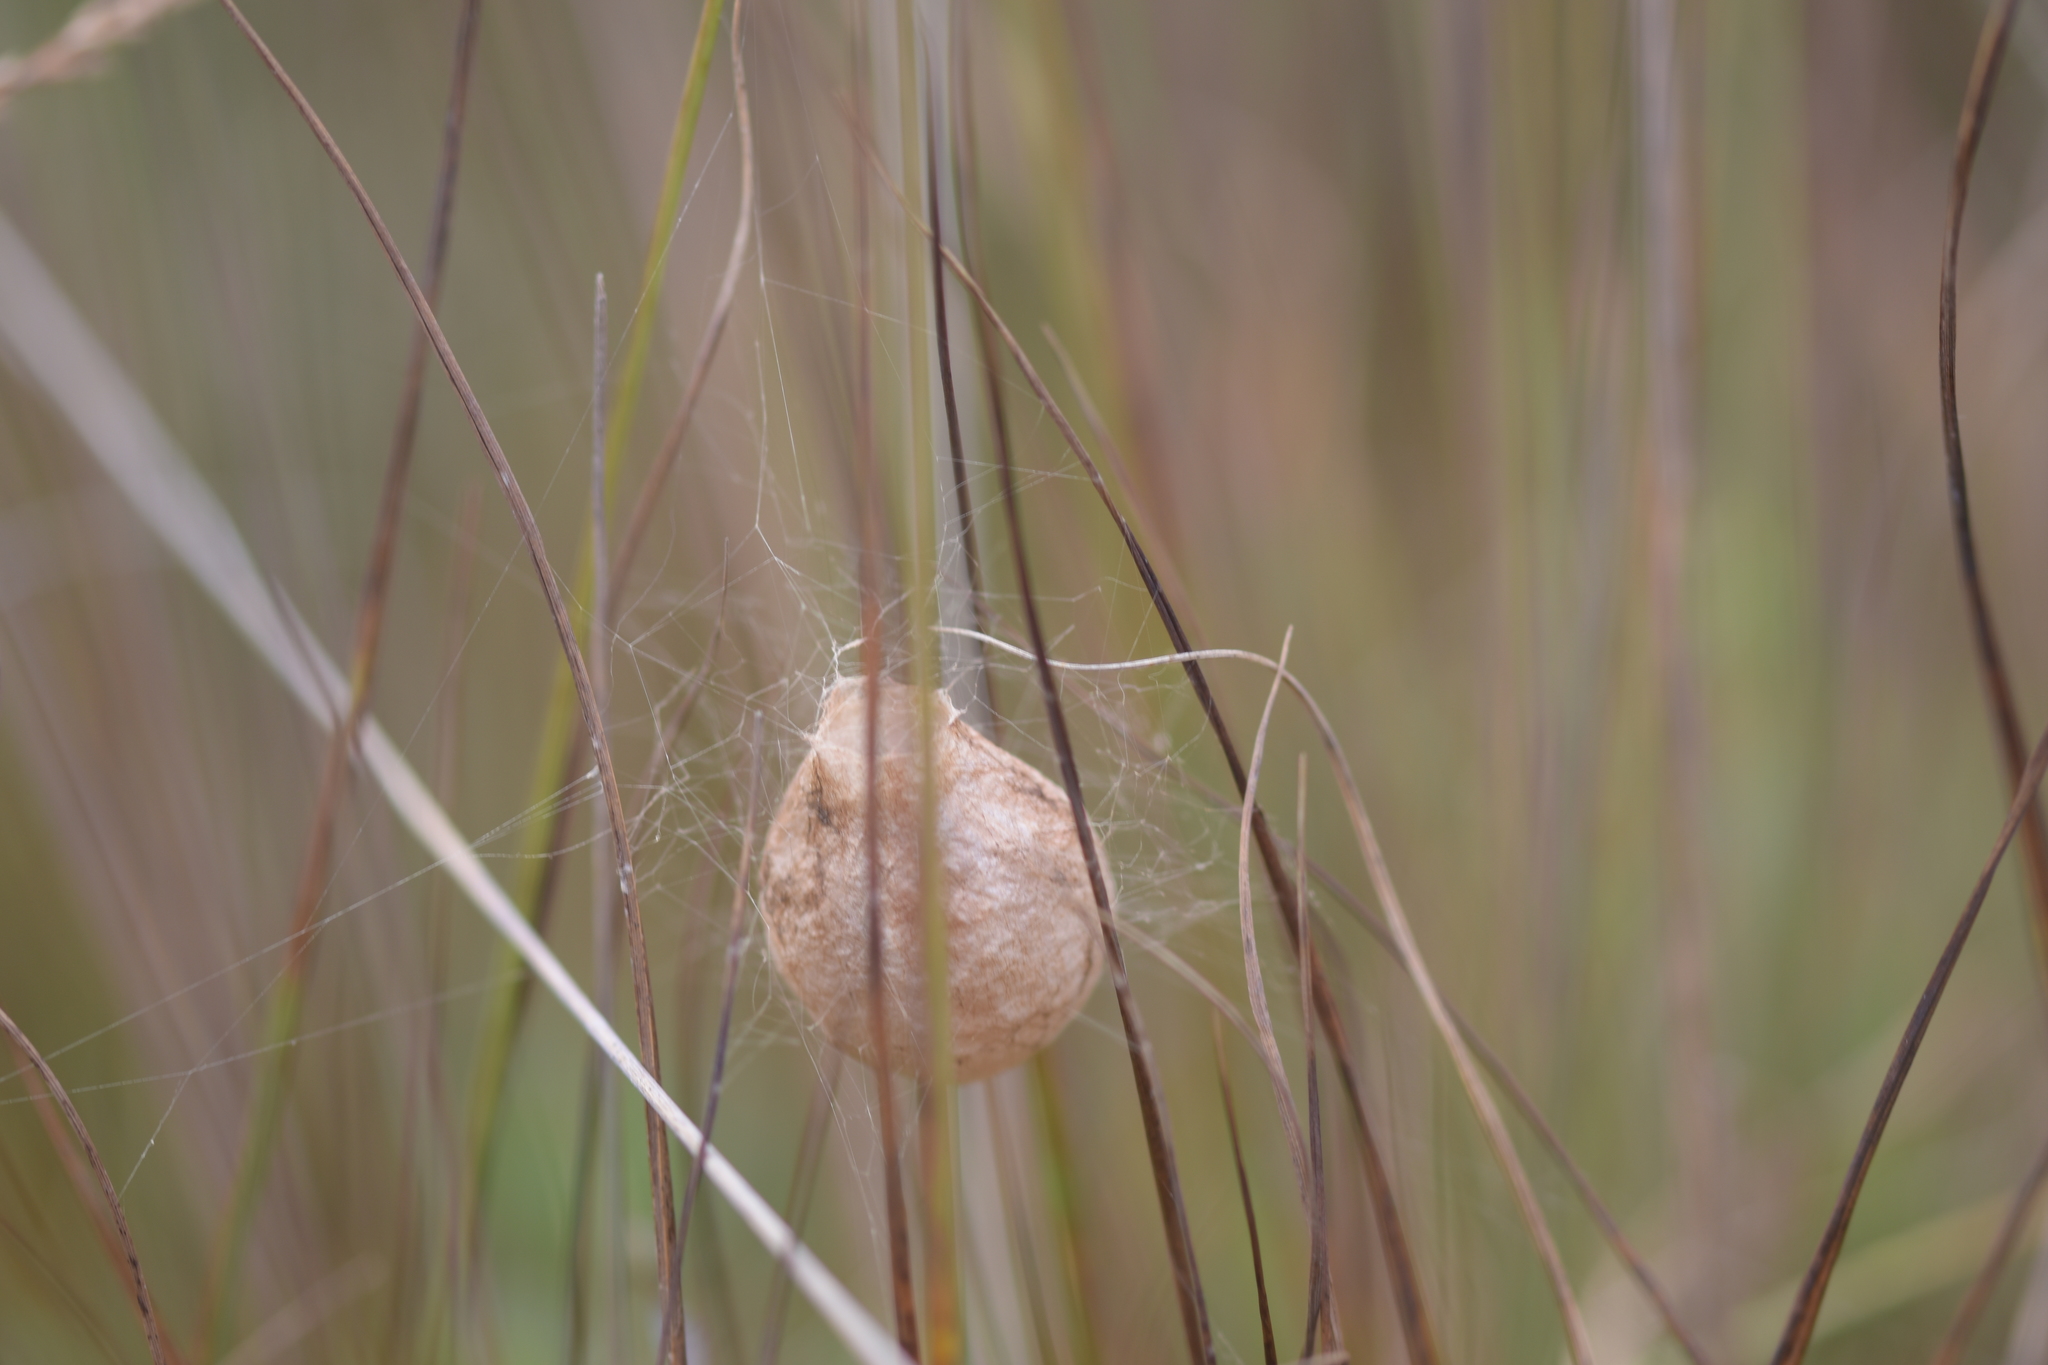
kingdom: Animalia
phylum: Arthropoda
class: Arachnida
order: Araneae
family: Araneidae
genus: Argiope
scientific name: Argiope bruennichi
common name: Wasp spider
